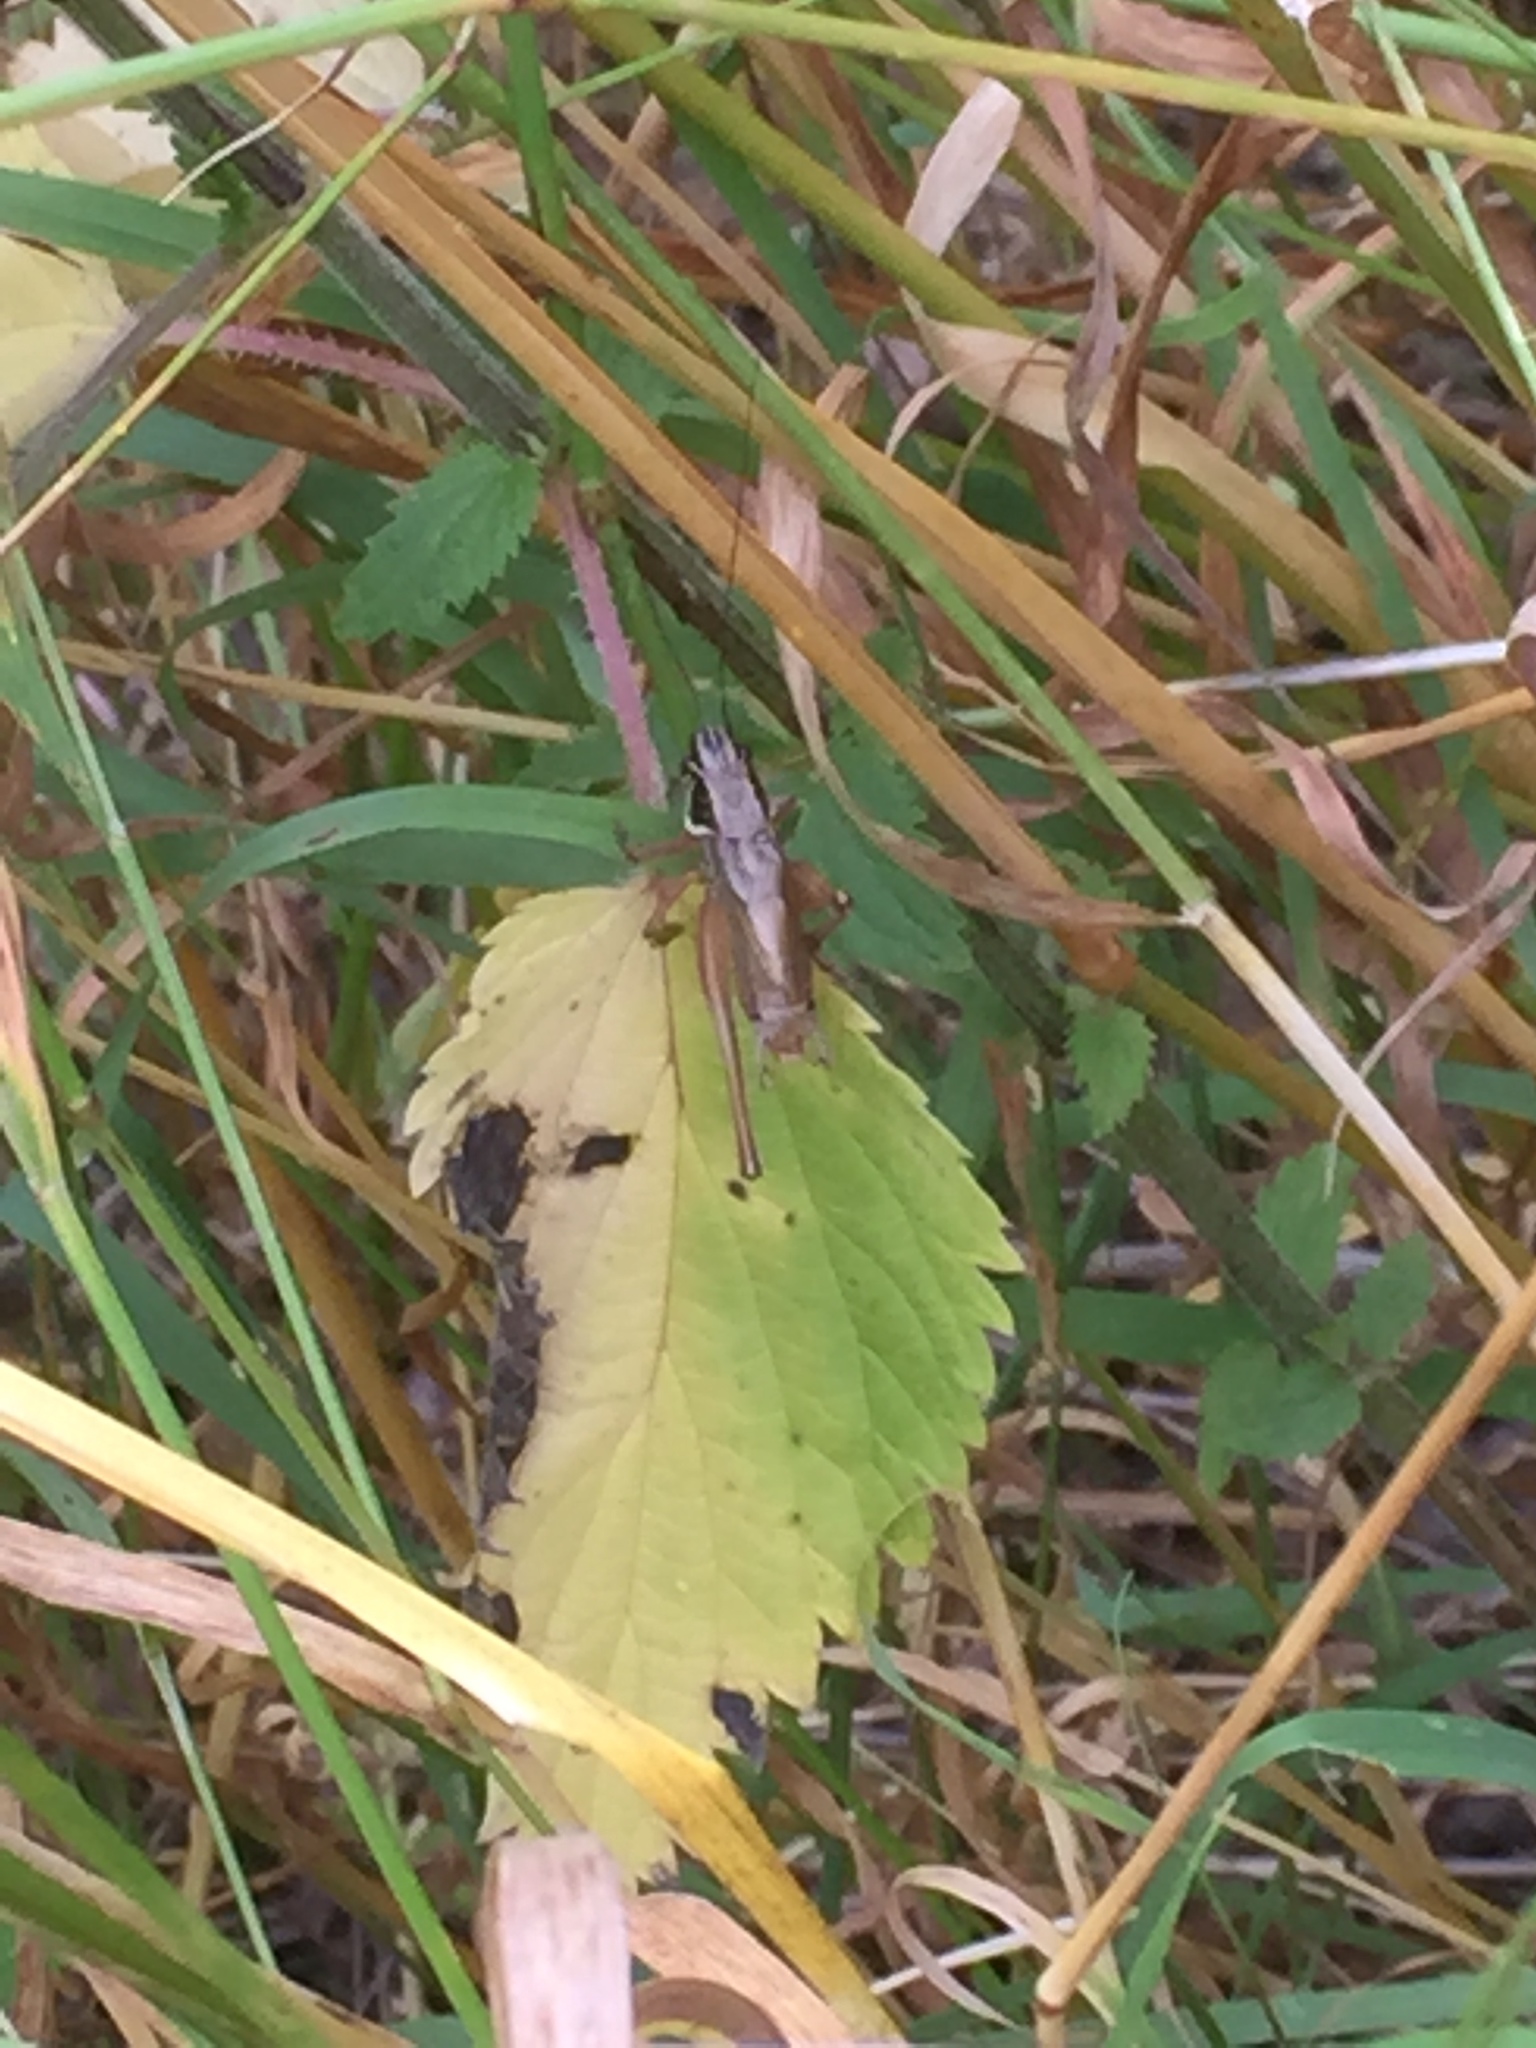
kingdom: Animalia
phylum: Arthropoda
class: Insecta
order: Orthoptera
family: Tettigoniidae
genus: Roeseliana
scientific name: Roeseliana roeselii
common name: Roesel's bush cricket
